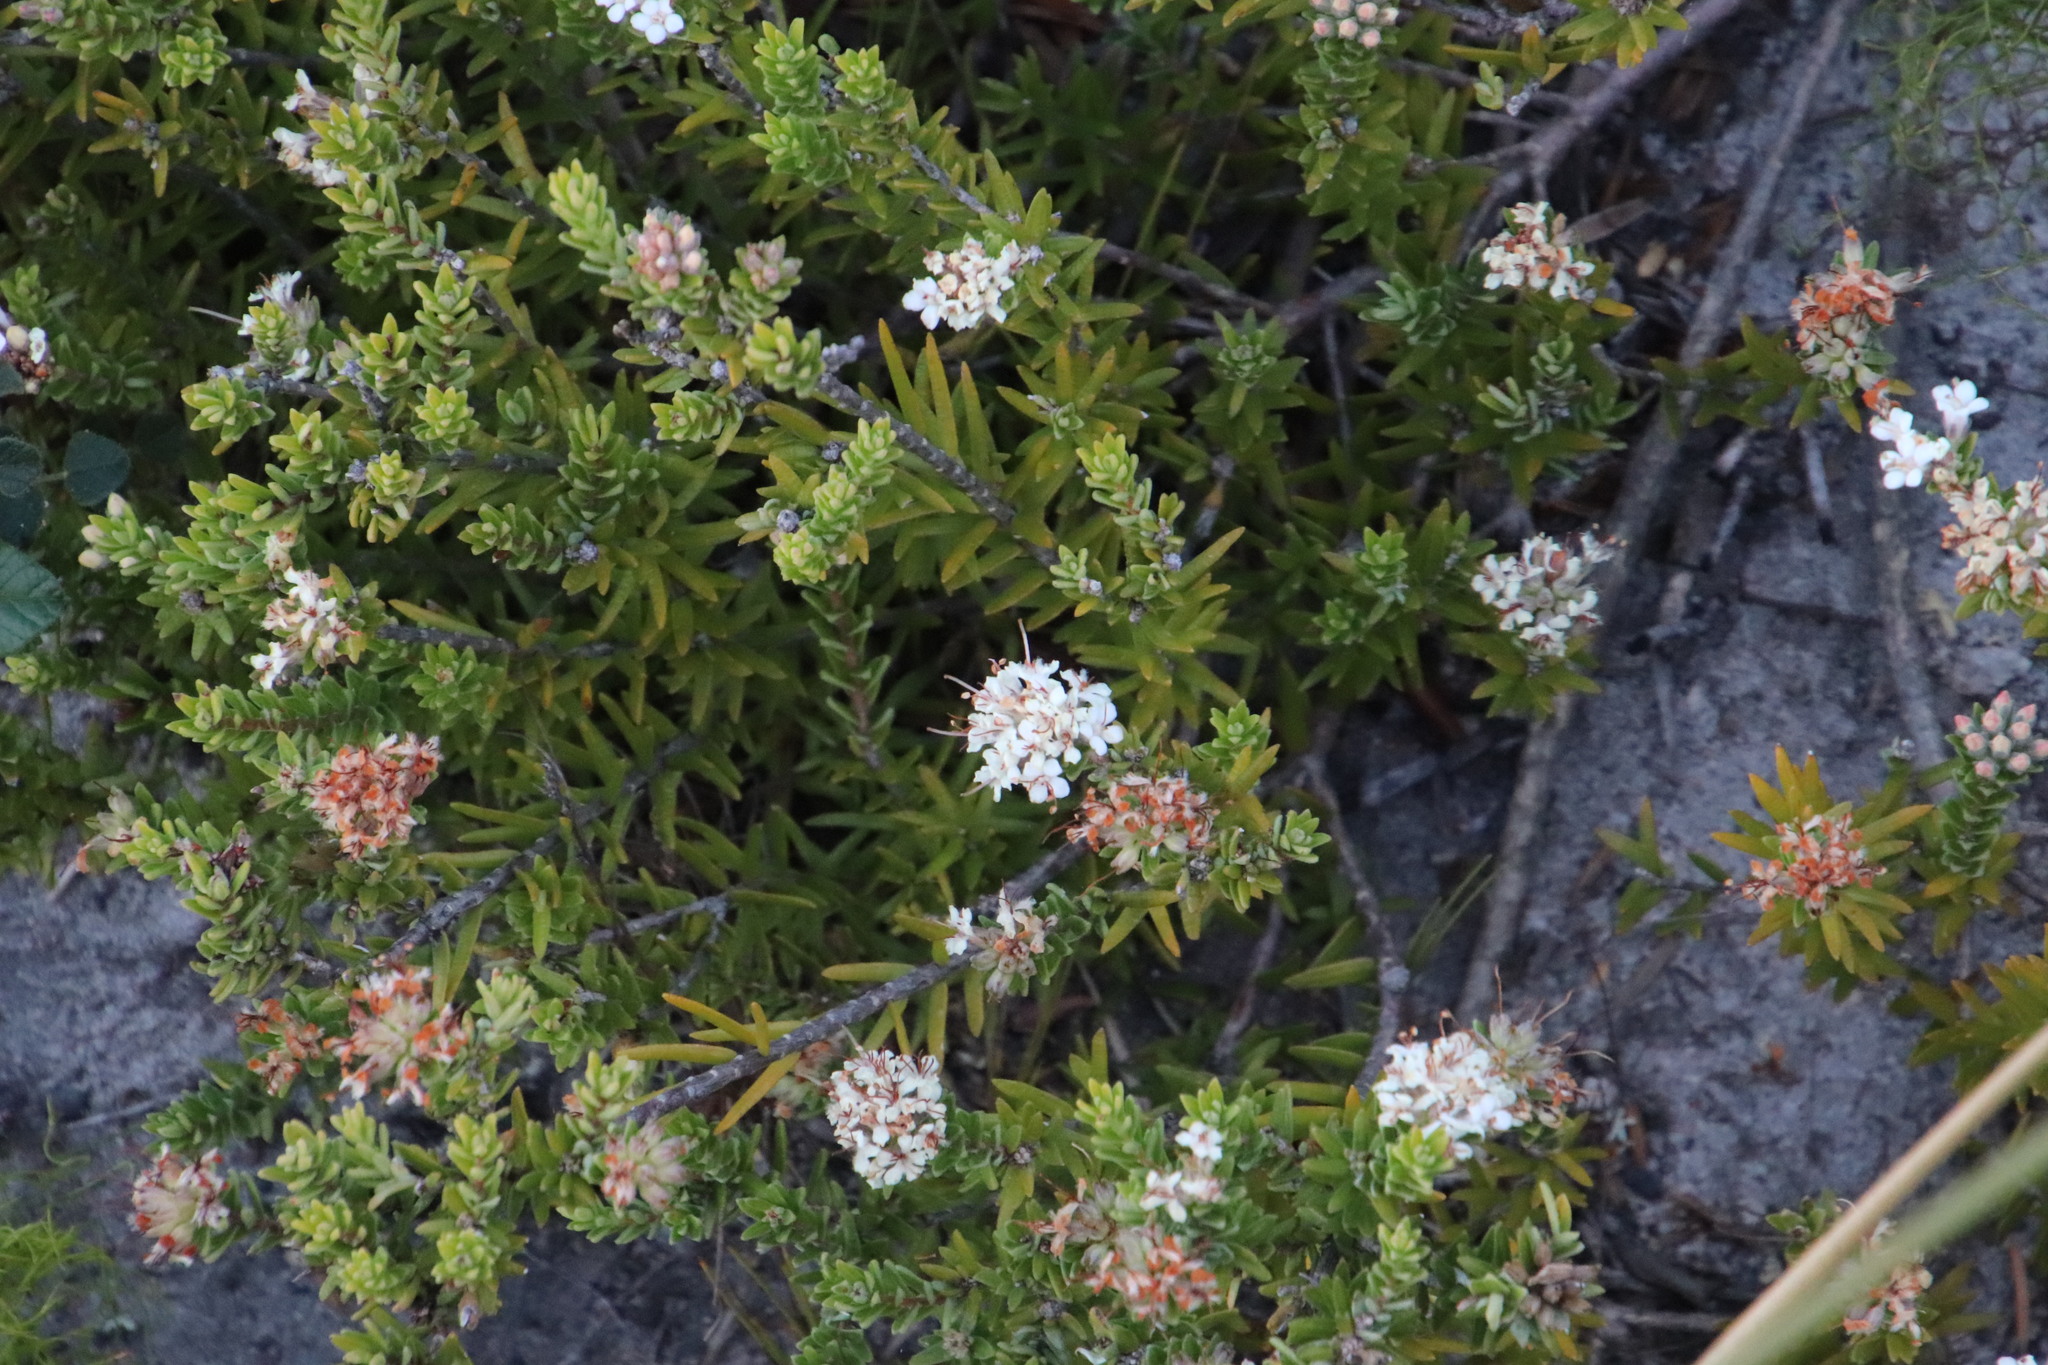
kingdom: Plantae
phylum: Tracheophyta
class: Magnoliopsida
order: Sapindales
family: Rutaceae
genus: Macrostylis
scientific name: Macrostylis villosa
